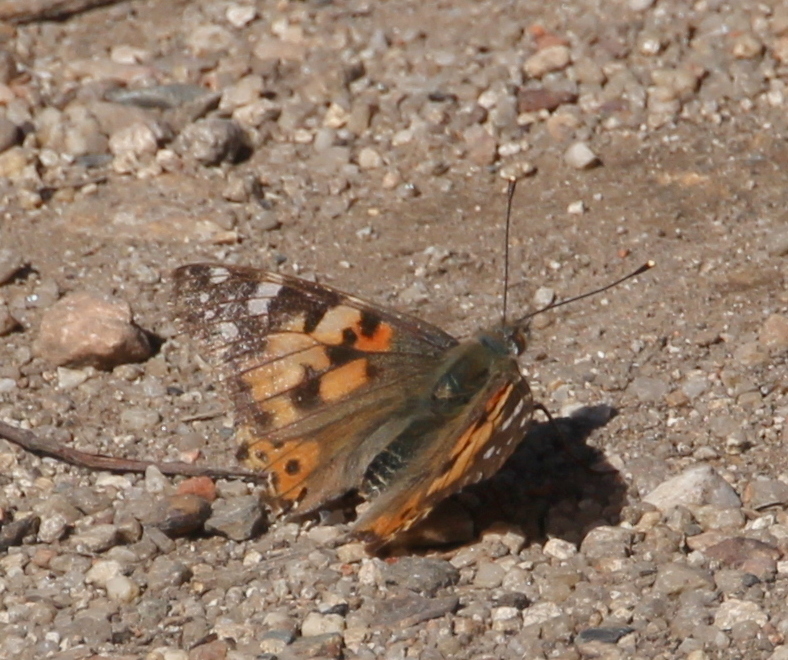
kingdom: Animalia
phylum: Arthropoda
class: Insecta
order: Lepidoptera
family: Nymphalidae
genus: Vanessa
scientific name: Vanessa cardui
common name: Painted lady
